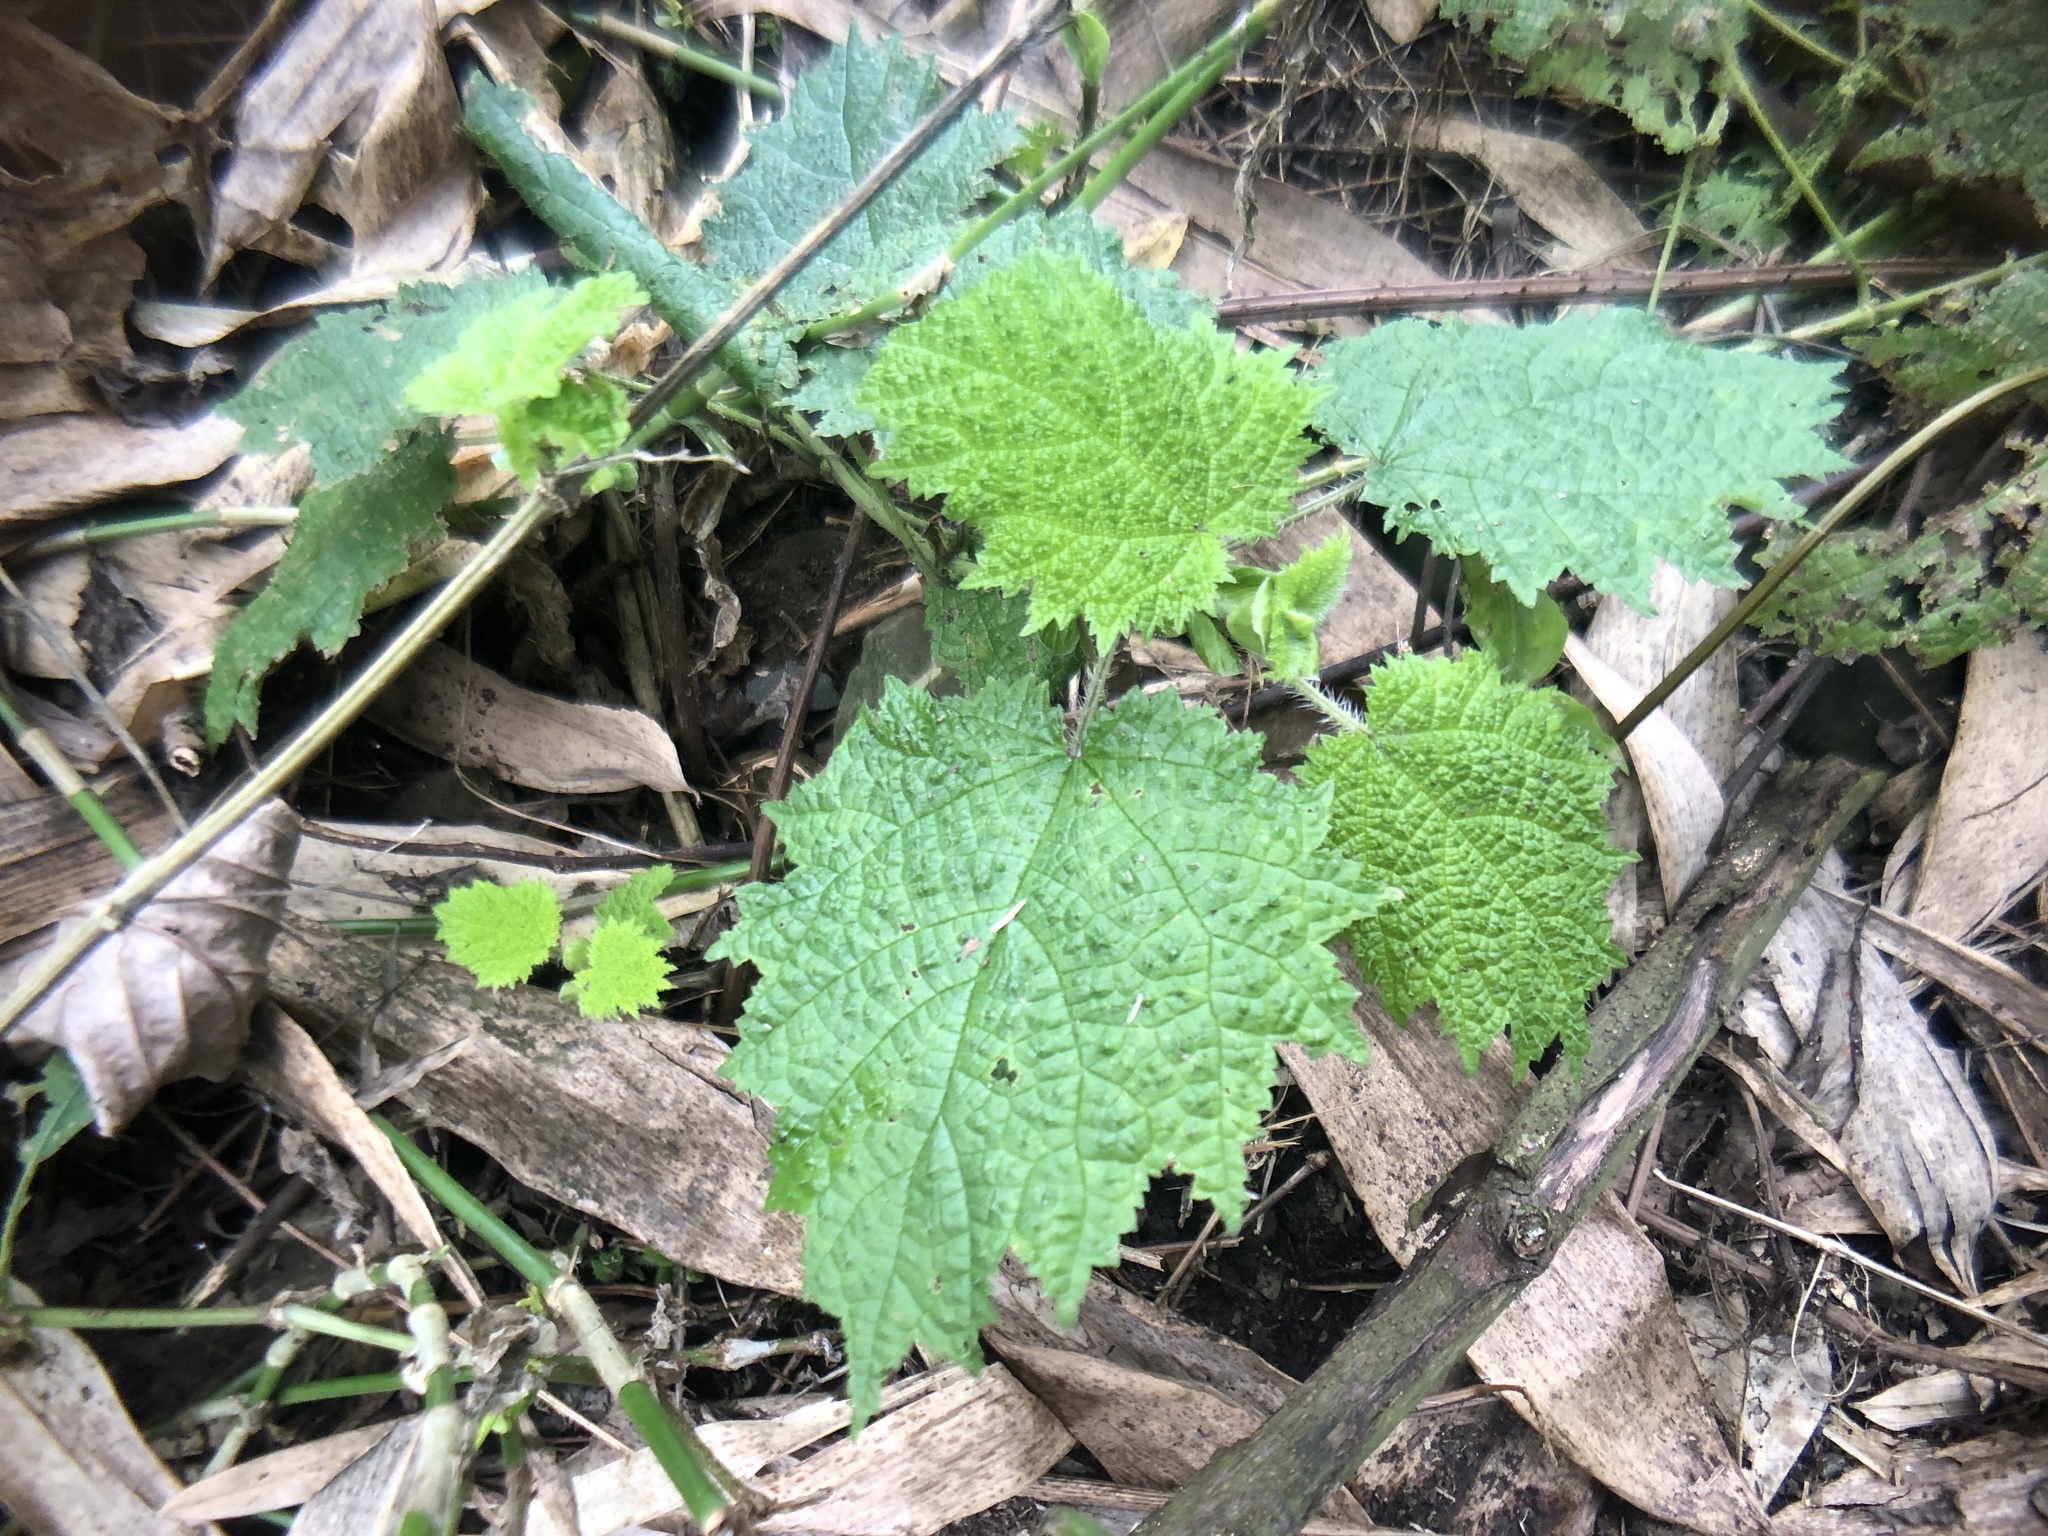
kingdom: Plantae
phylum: Tracheophyta
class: Magnoliopsida
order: Rosales
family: Urticaceae
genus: Urtica
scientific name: Urtica thunbergiana
